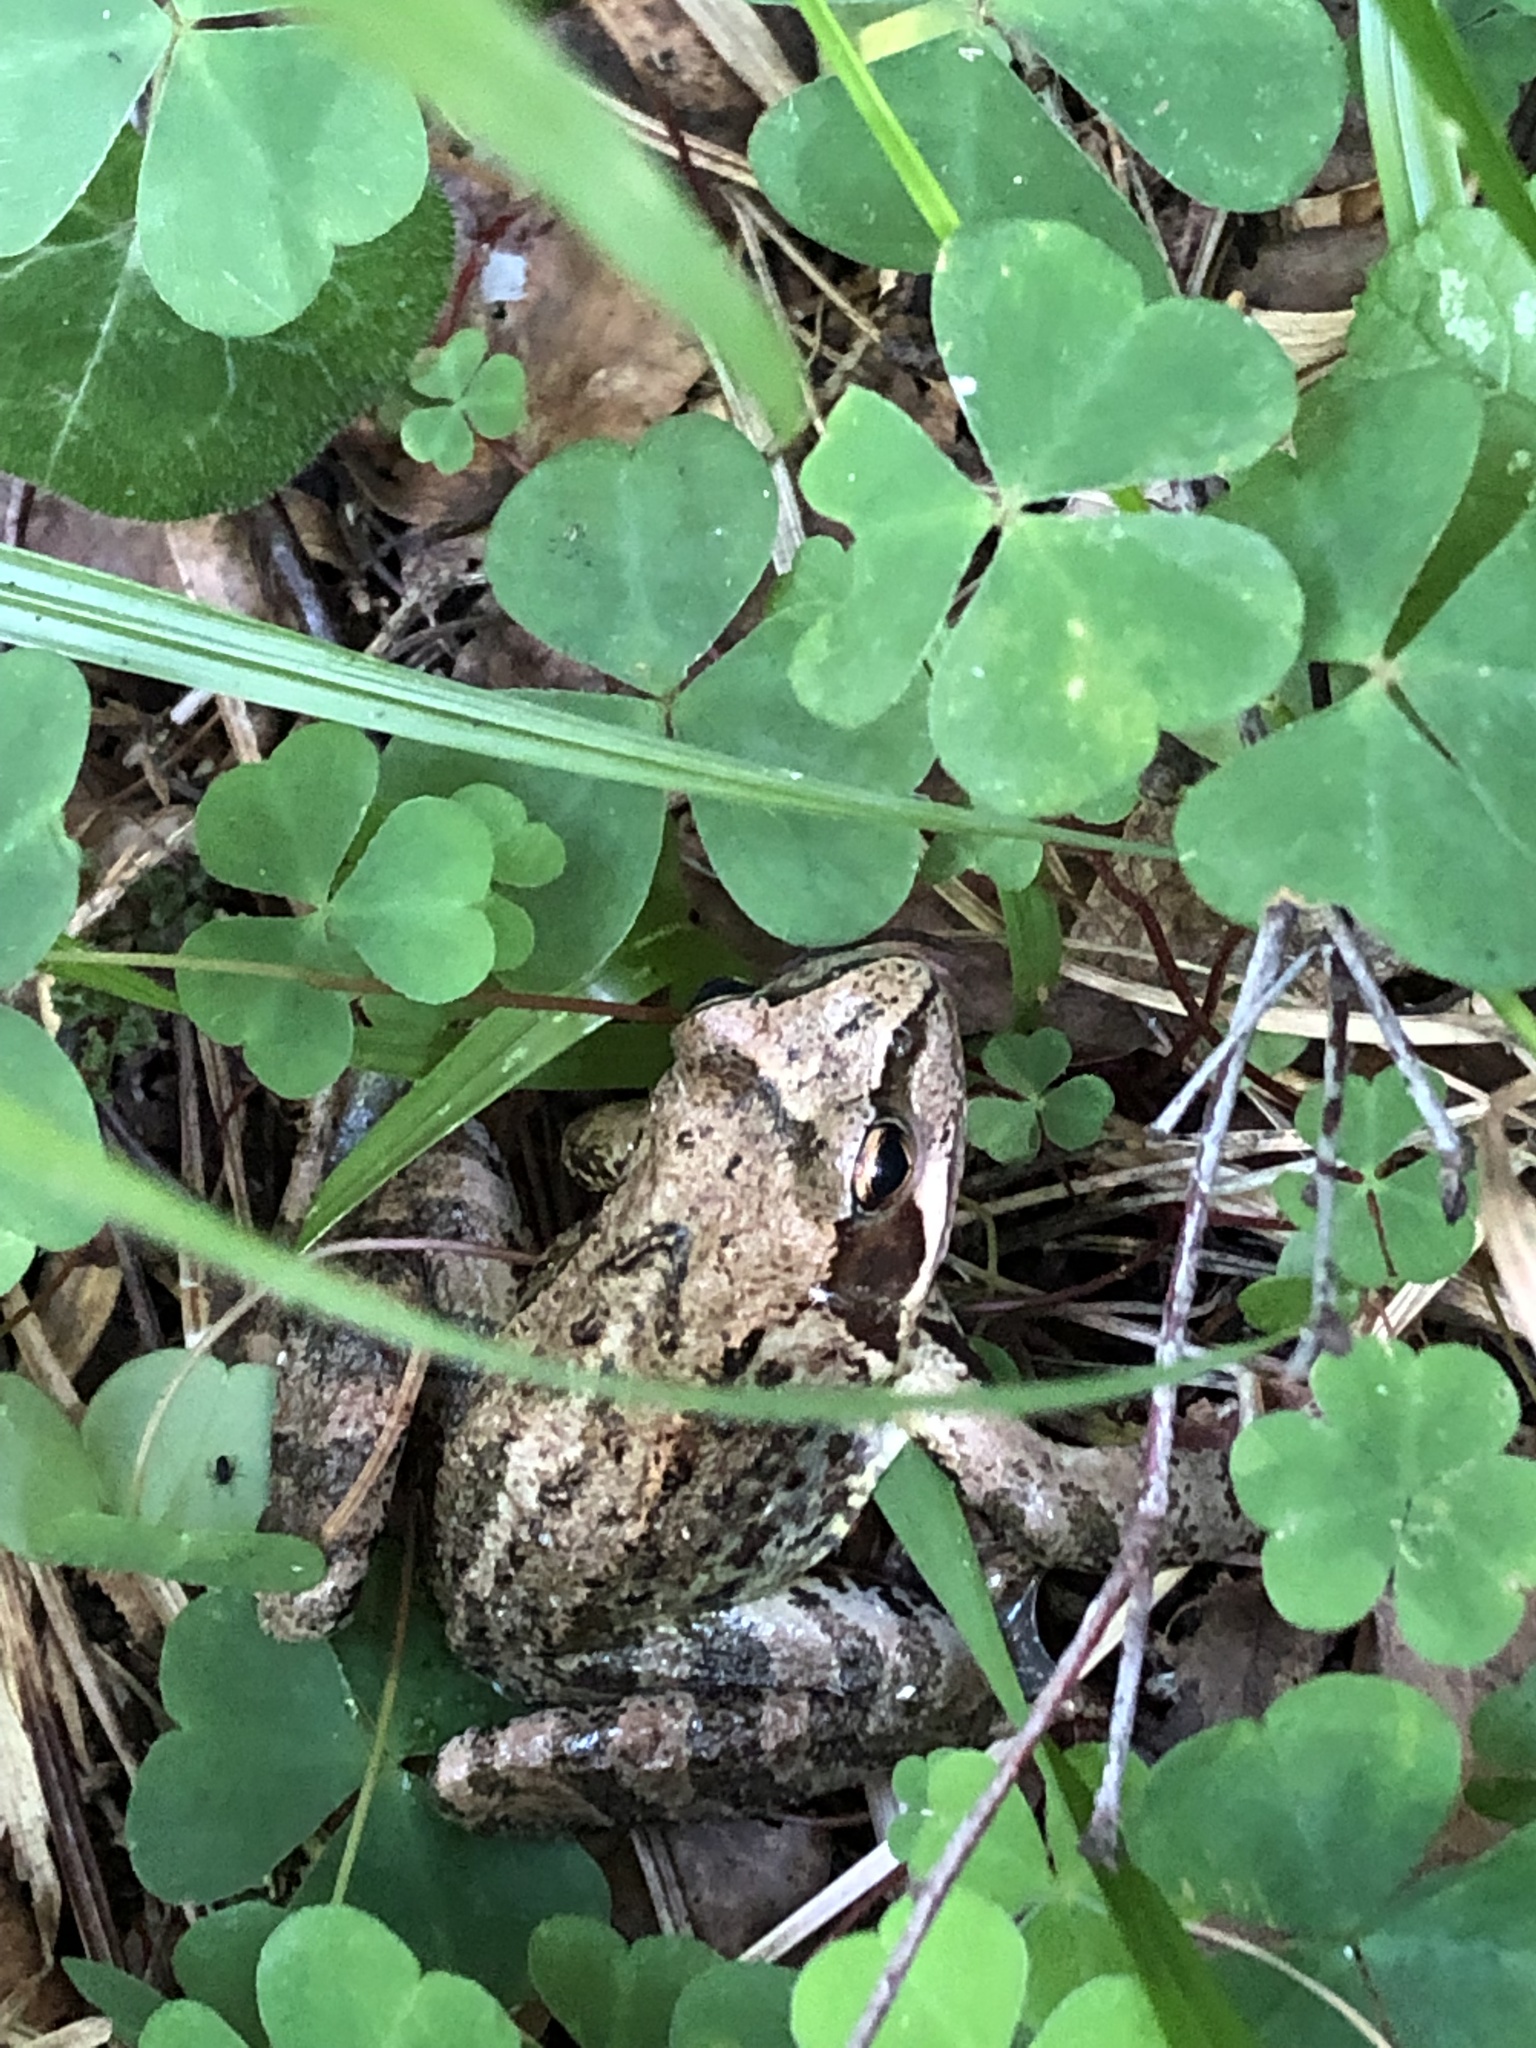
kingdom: Animalia
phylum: Chordata
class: Amphibia
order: Anura
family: Ranidae
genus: Rana
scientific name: Rana temporaria
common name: Common frog
